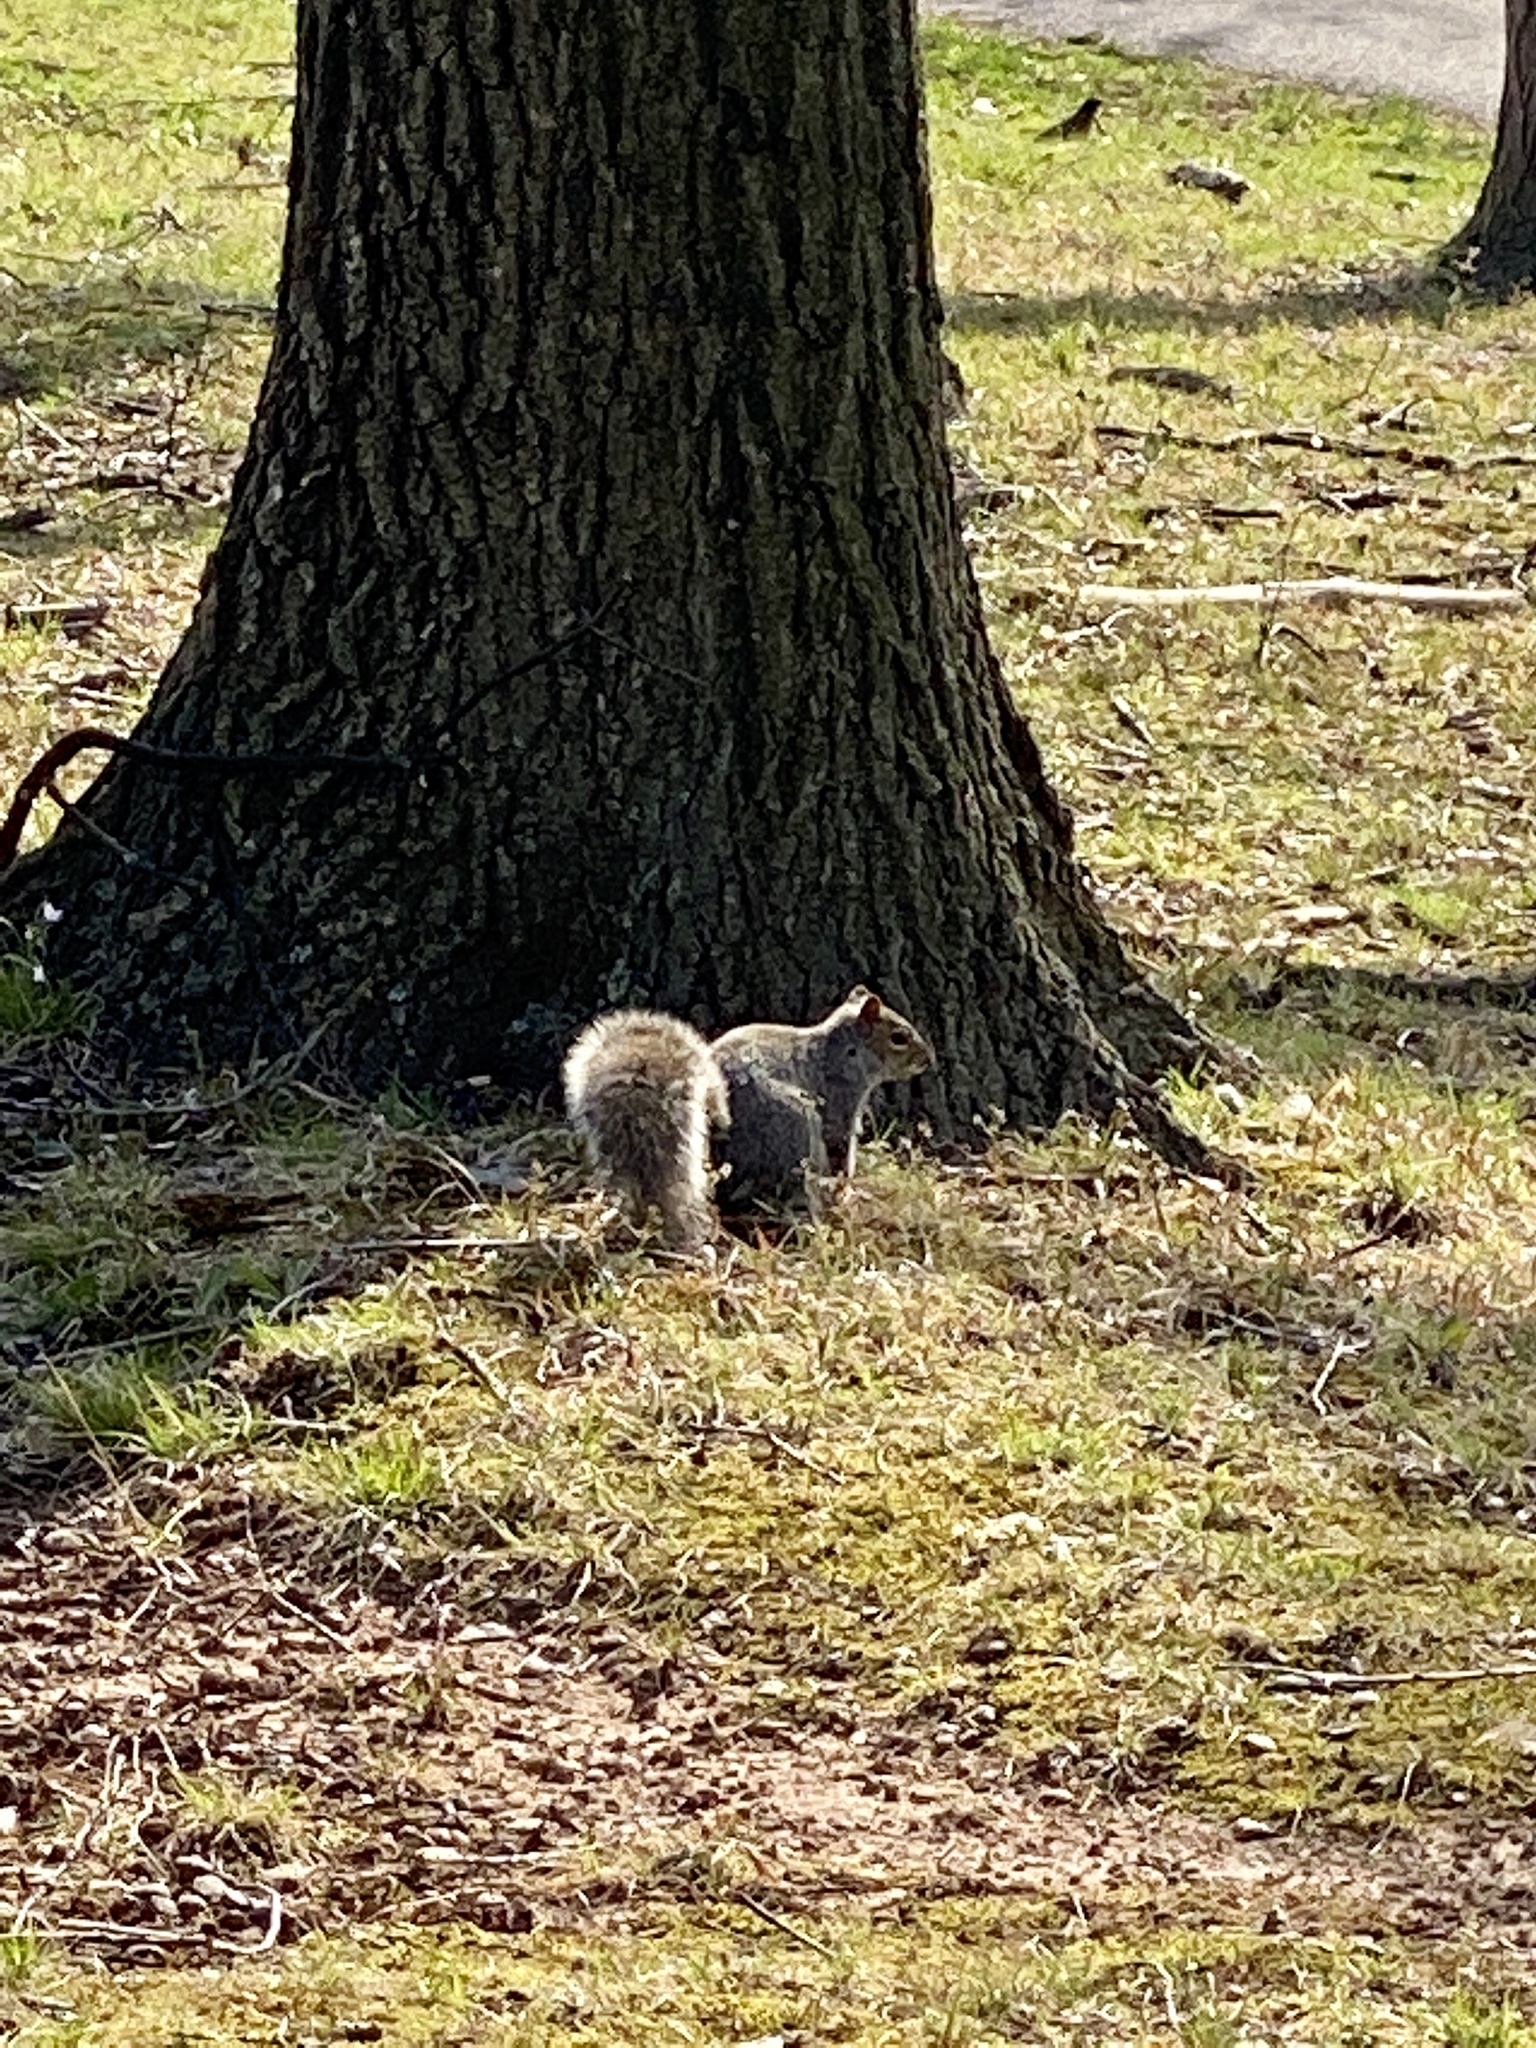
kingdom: Animalia
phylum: Chordata
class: Mammalia
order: Rodentia
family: Sciuridae
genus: Sciurus
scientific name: Sciurus carolinensis
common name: Eastern gray squirrel
